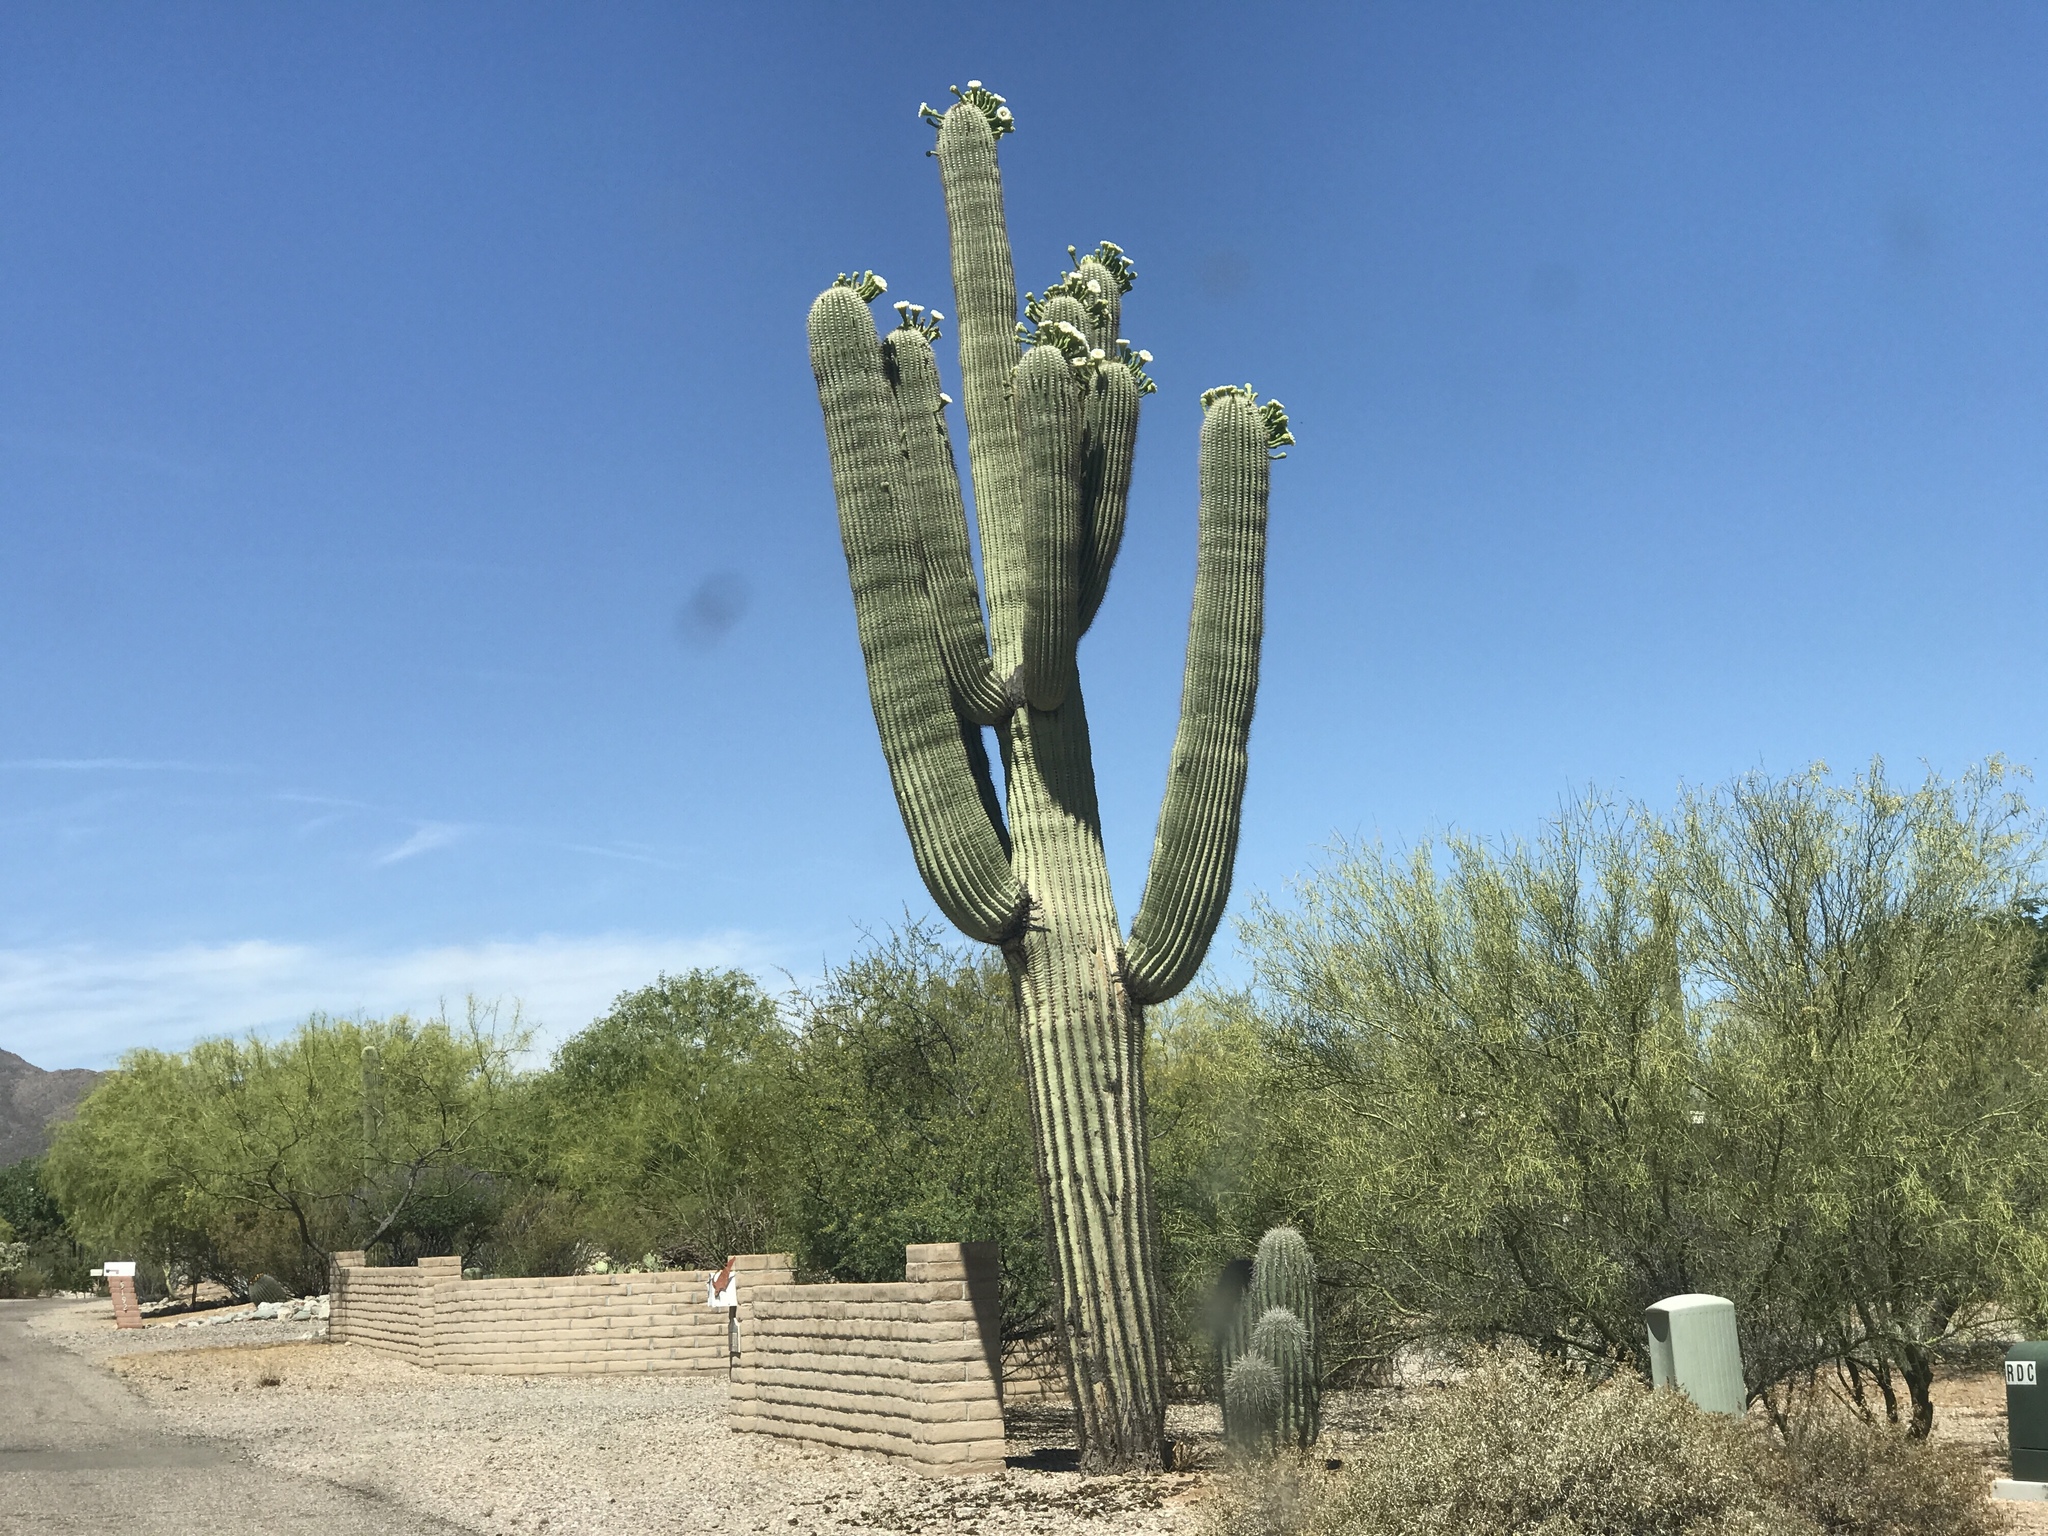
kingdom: Plantae
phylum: Tracheophyta
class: Magnoliopsida
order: Caryophyllales
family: Cactaceae
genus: Carnegiea
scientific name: Carnegiea gigantea
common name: Saguaro
